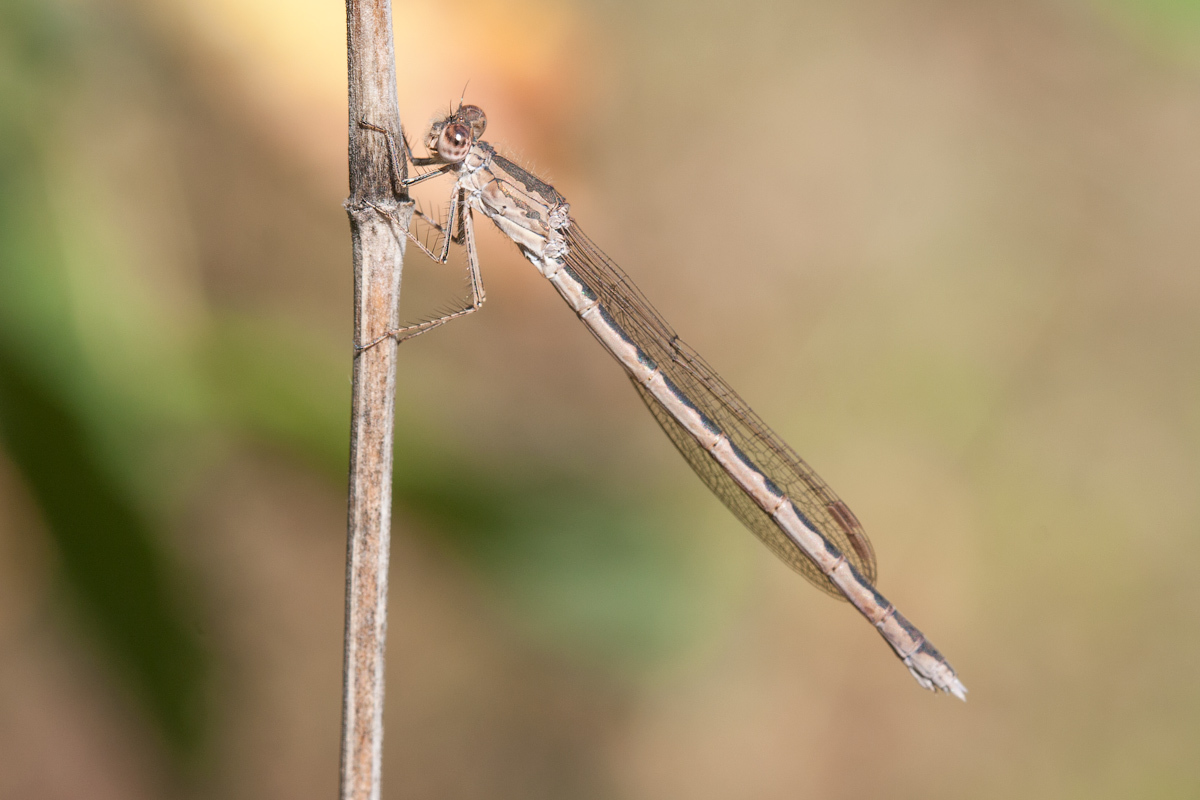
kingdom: Animalia
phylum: Arthropoda
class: Insecta
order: Odonata
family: Lestidae
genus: Sympecma
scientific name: Sympecma paedisca
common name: Siberian winter damsel
